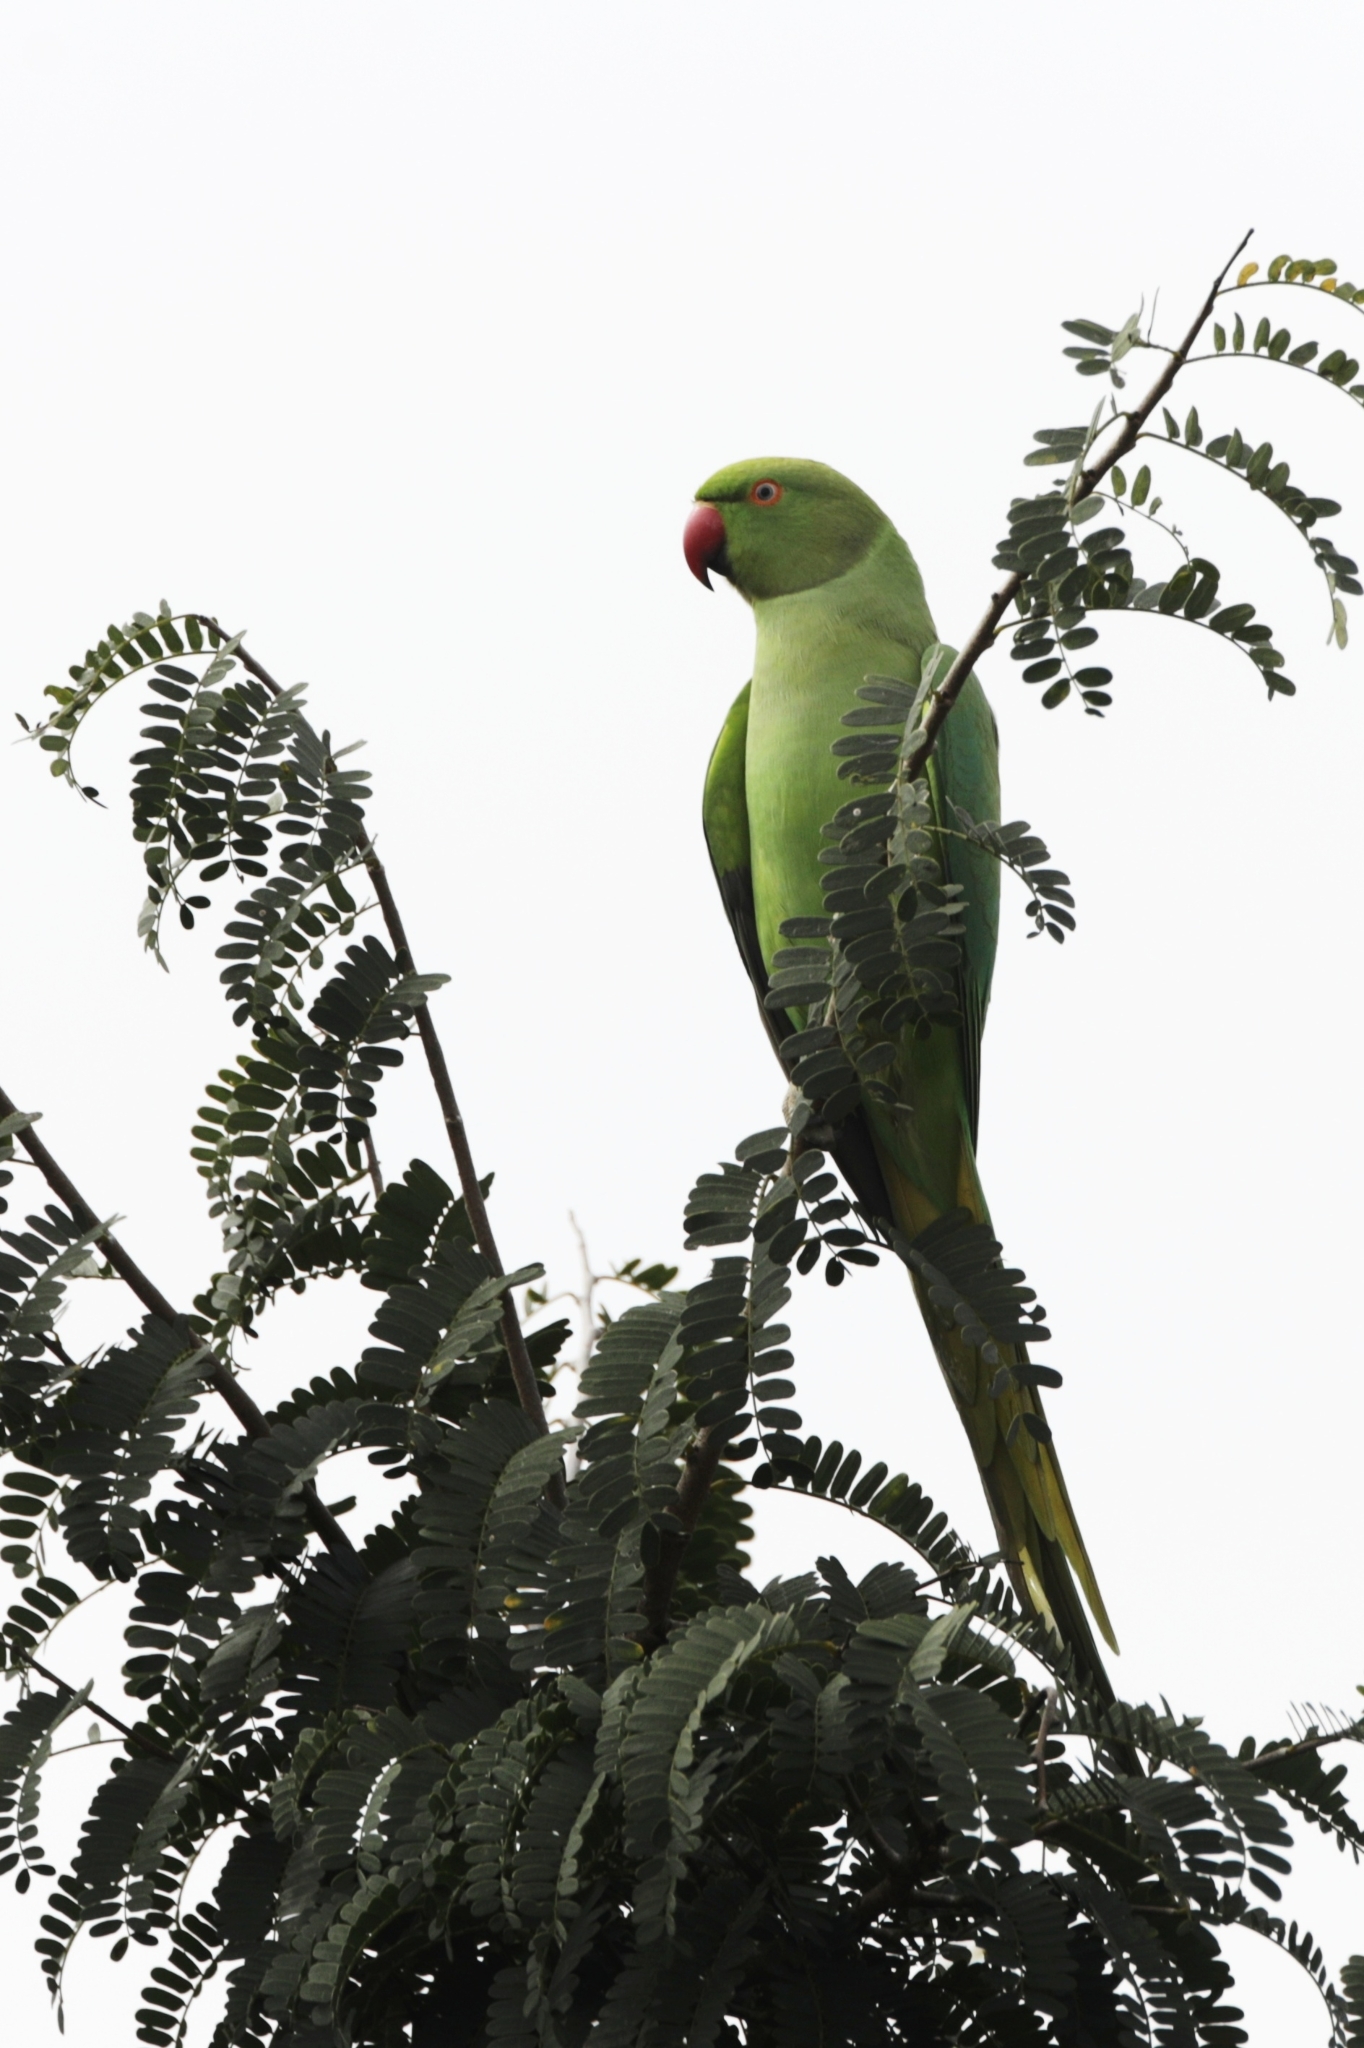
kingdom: Animalia
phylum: Chordata
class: Aves
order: Psittaciformes
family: Psittacidae
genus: Psittacula
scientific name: Psittacula krameri
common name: Rose-ringed parakeet
